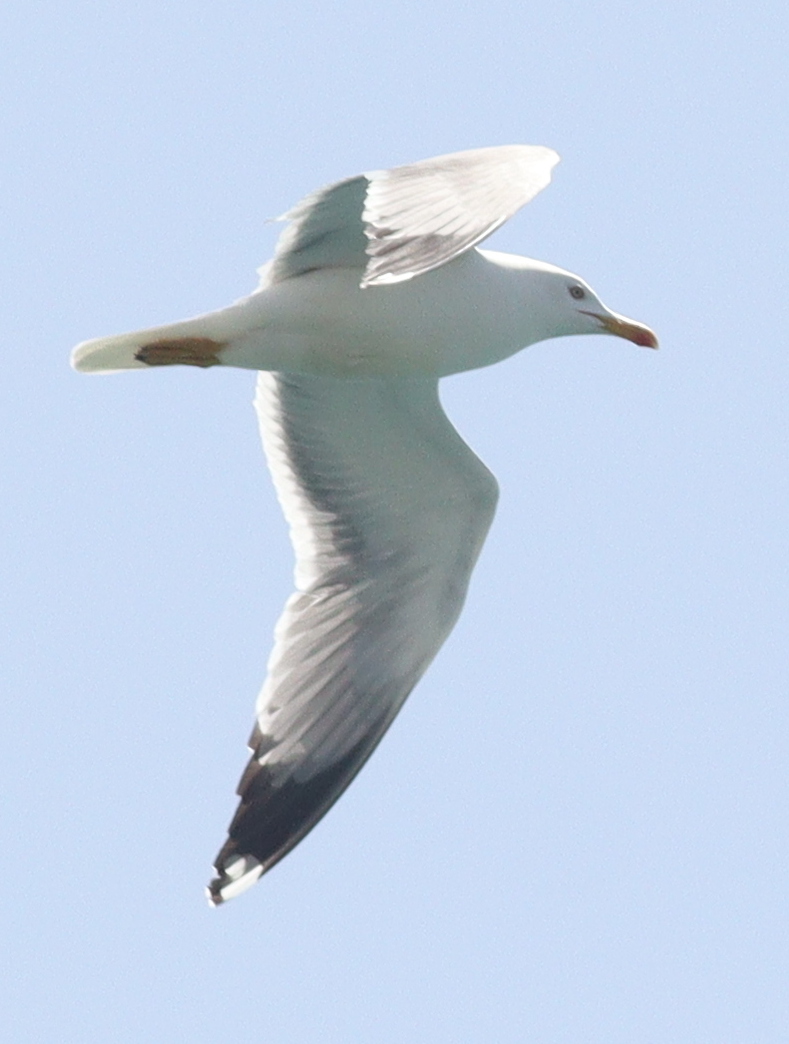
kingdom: Animalia
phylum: Chordata
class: Aves
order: Charadriiformes
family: Laridae
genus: Larus
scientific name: Larus michahellis
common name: Yellow-legged gull
